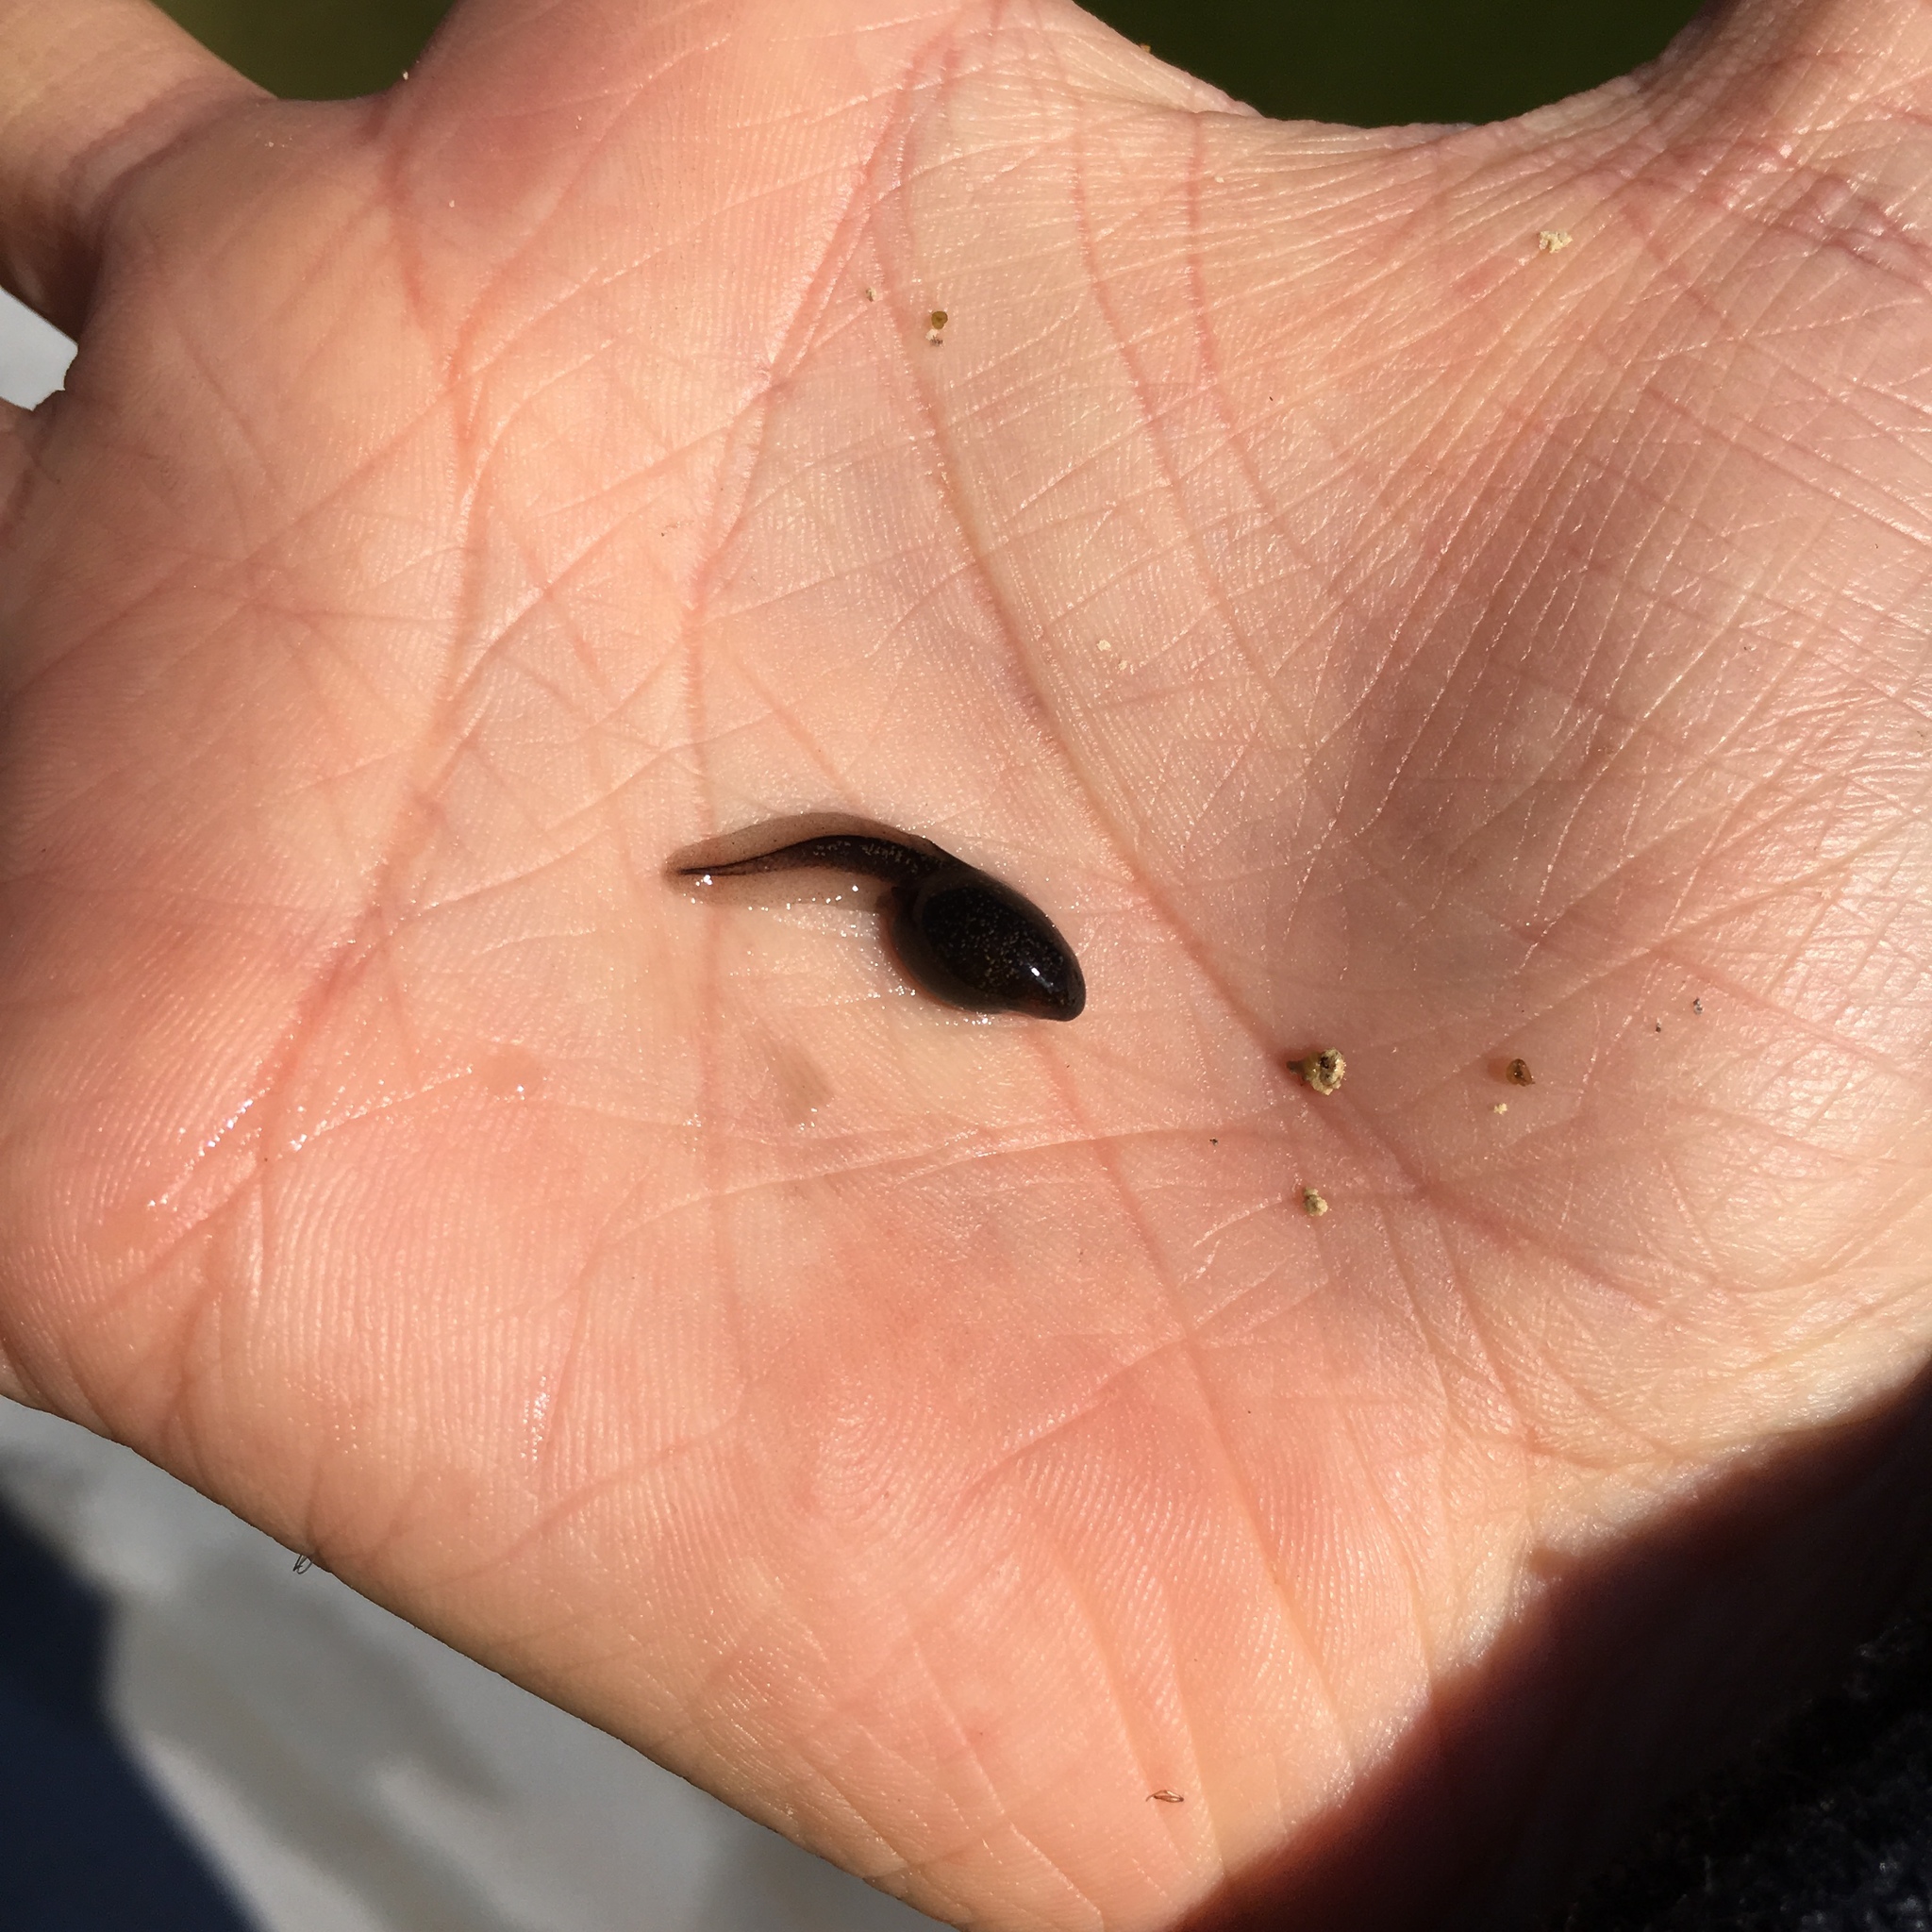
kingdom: Animalia
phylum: Chordata
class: Amphibia
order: Anura
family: Bufonidae
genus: Bufo
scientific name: Bufo spinosus
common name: Western common toad
